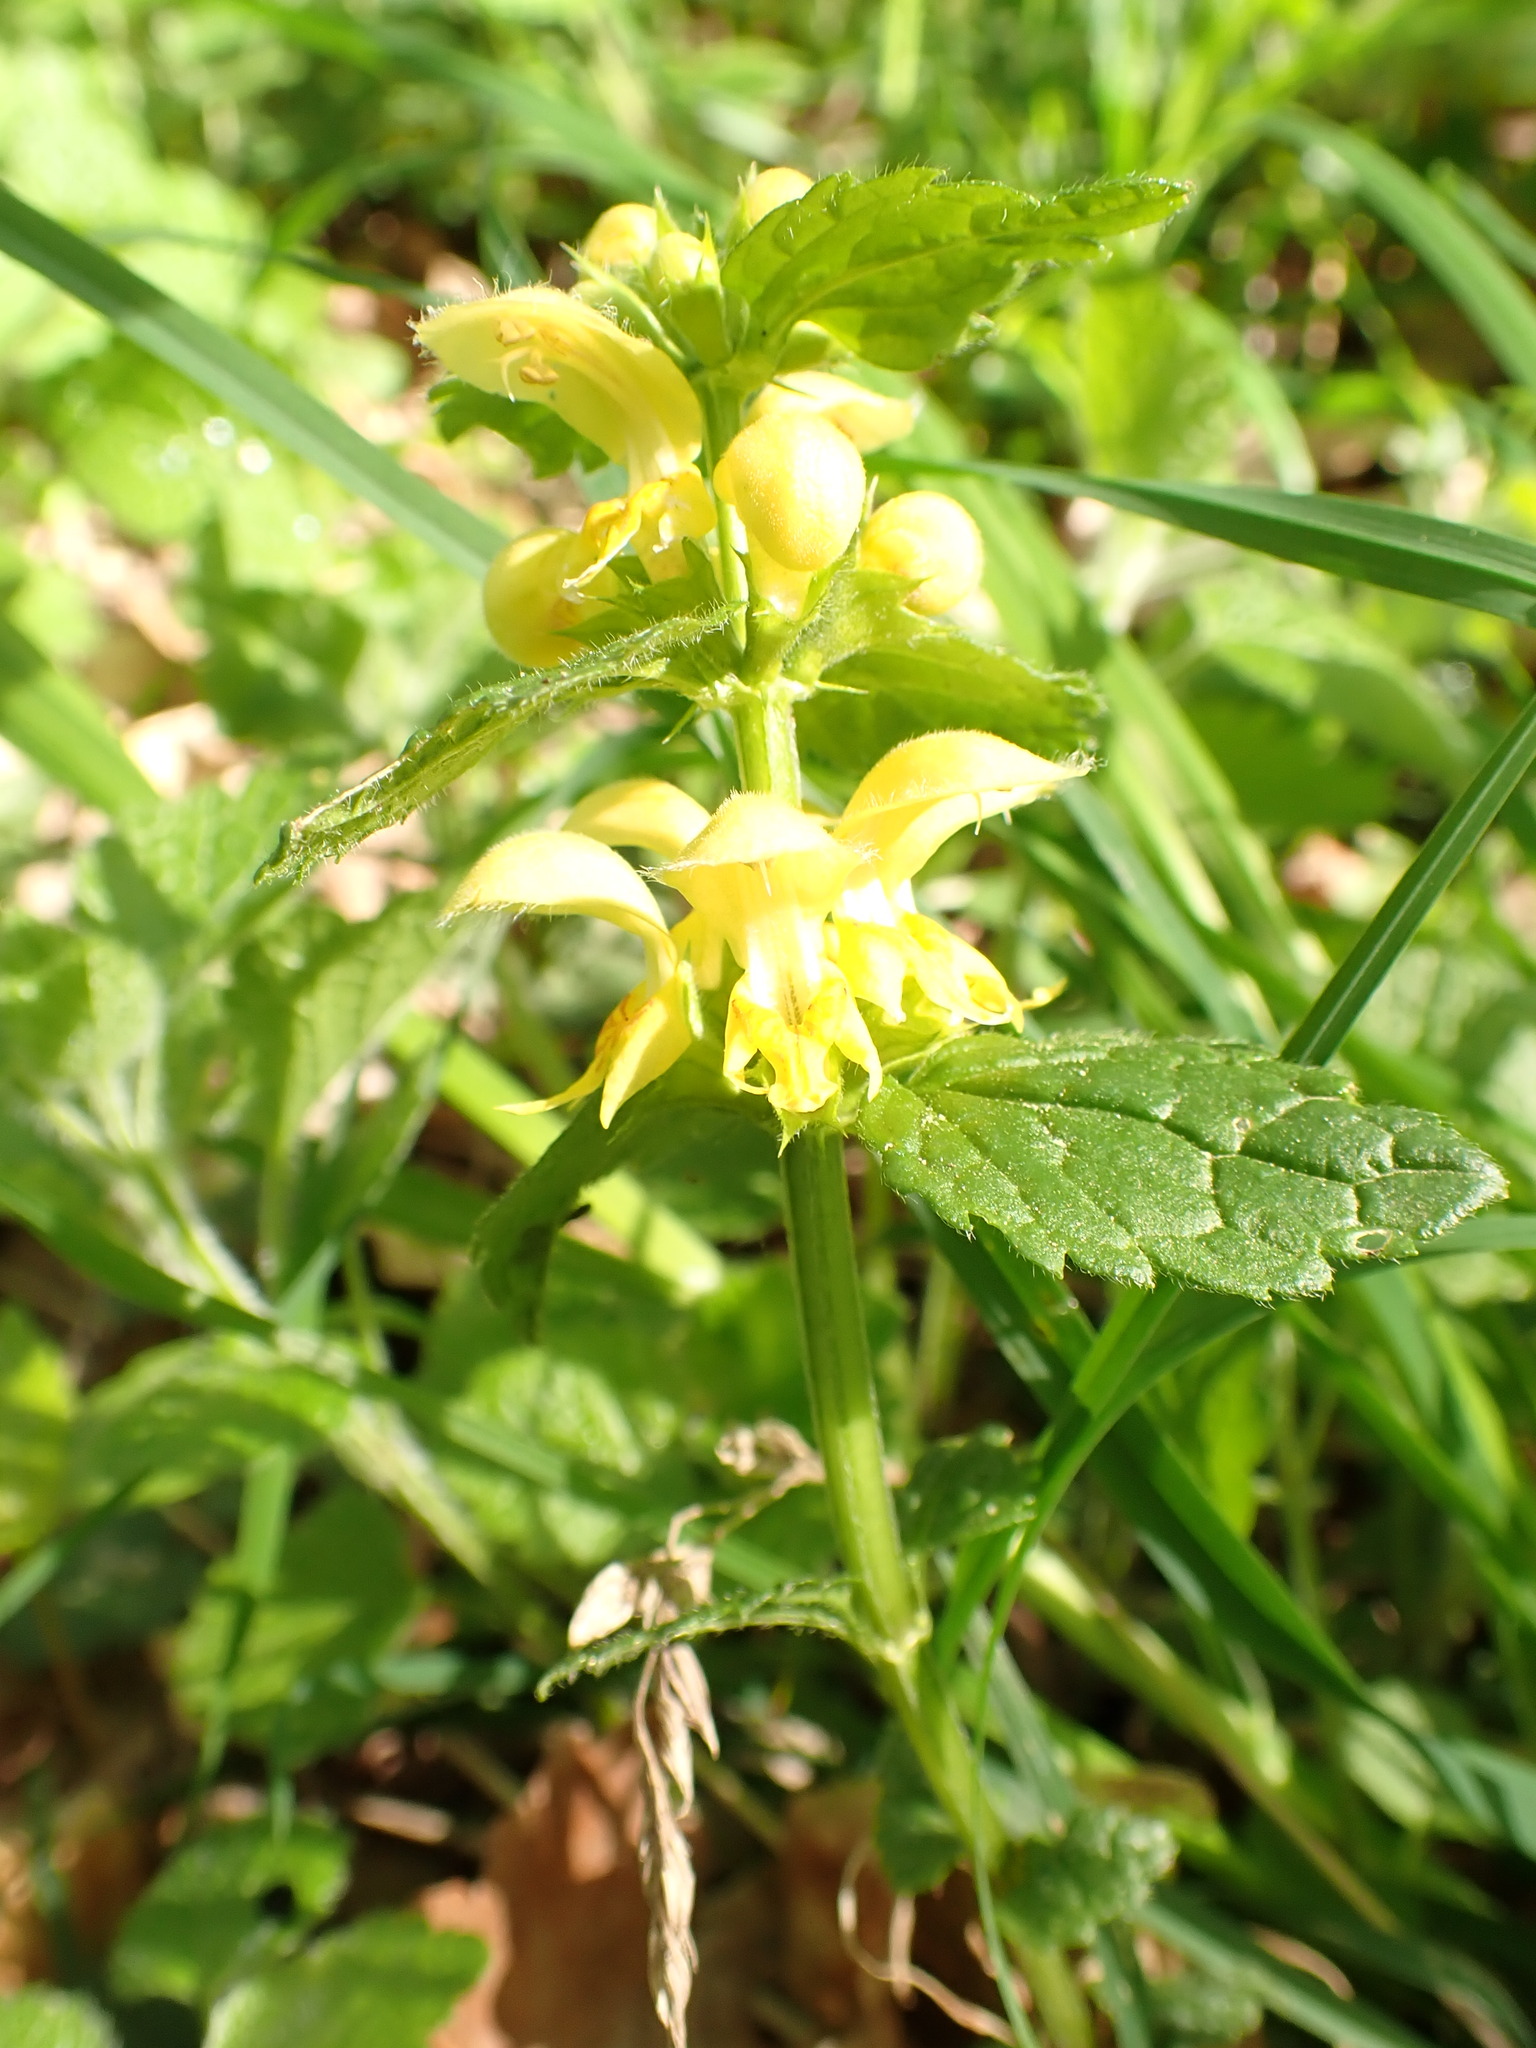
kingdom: Plantae
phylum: Tracheophyta
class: Magnoliopsida
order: Lamiales
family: Lamiaceae
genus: Lamium
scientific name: Lamium galeobdolon
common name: Yellow archangel
